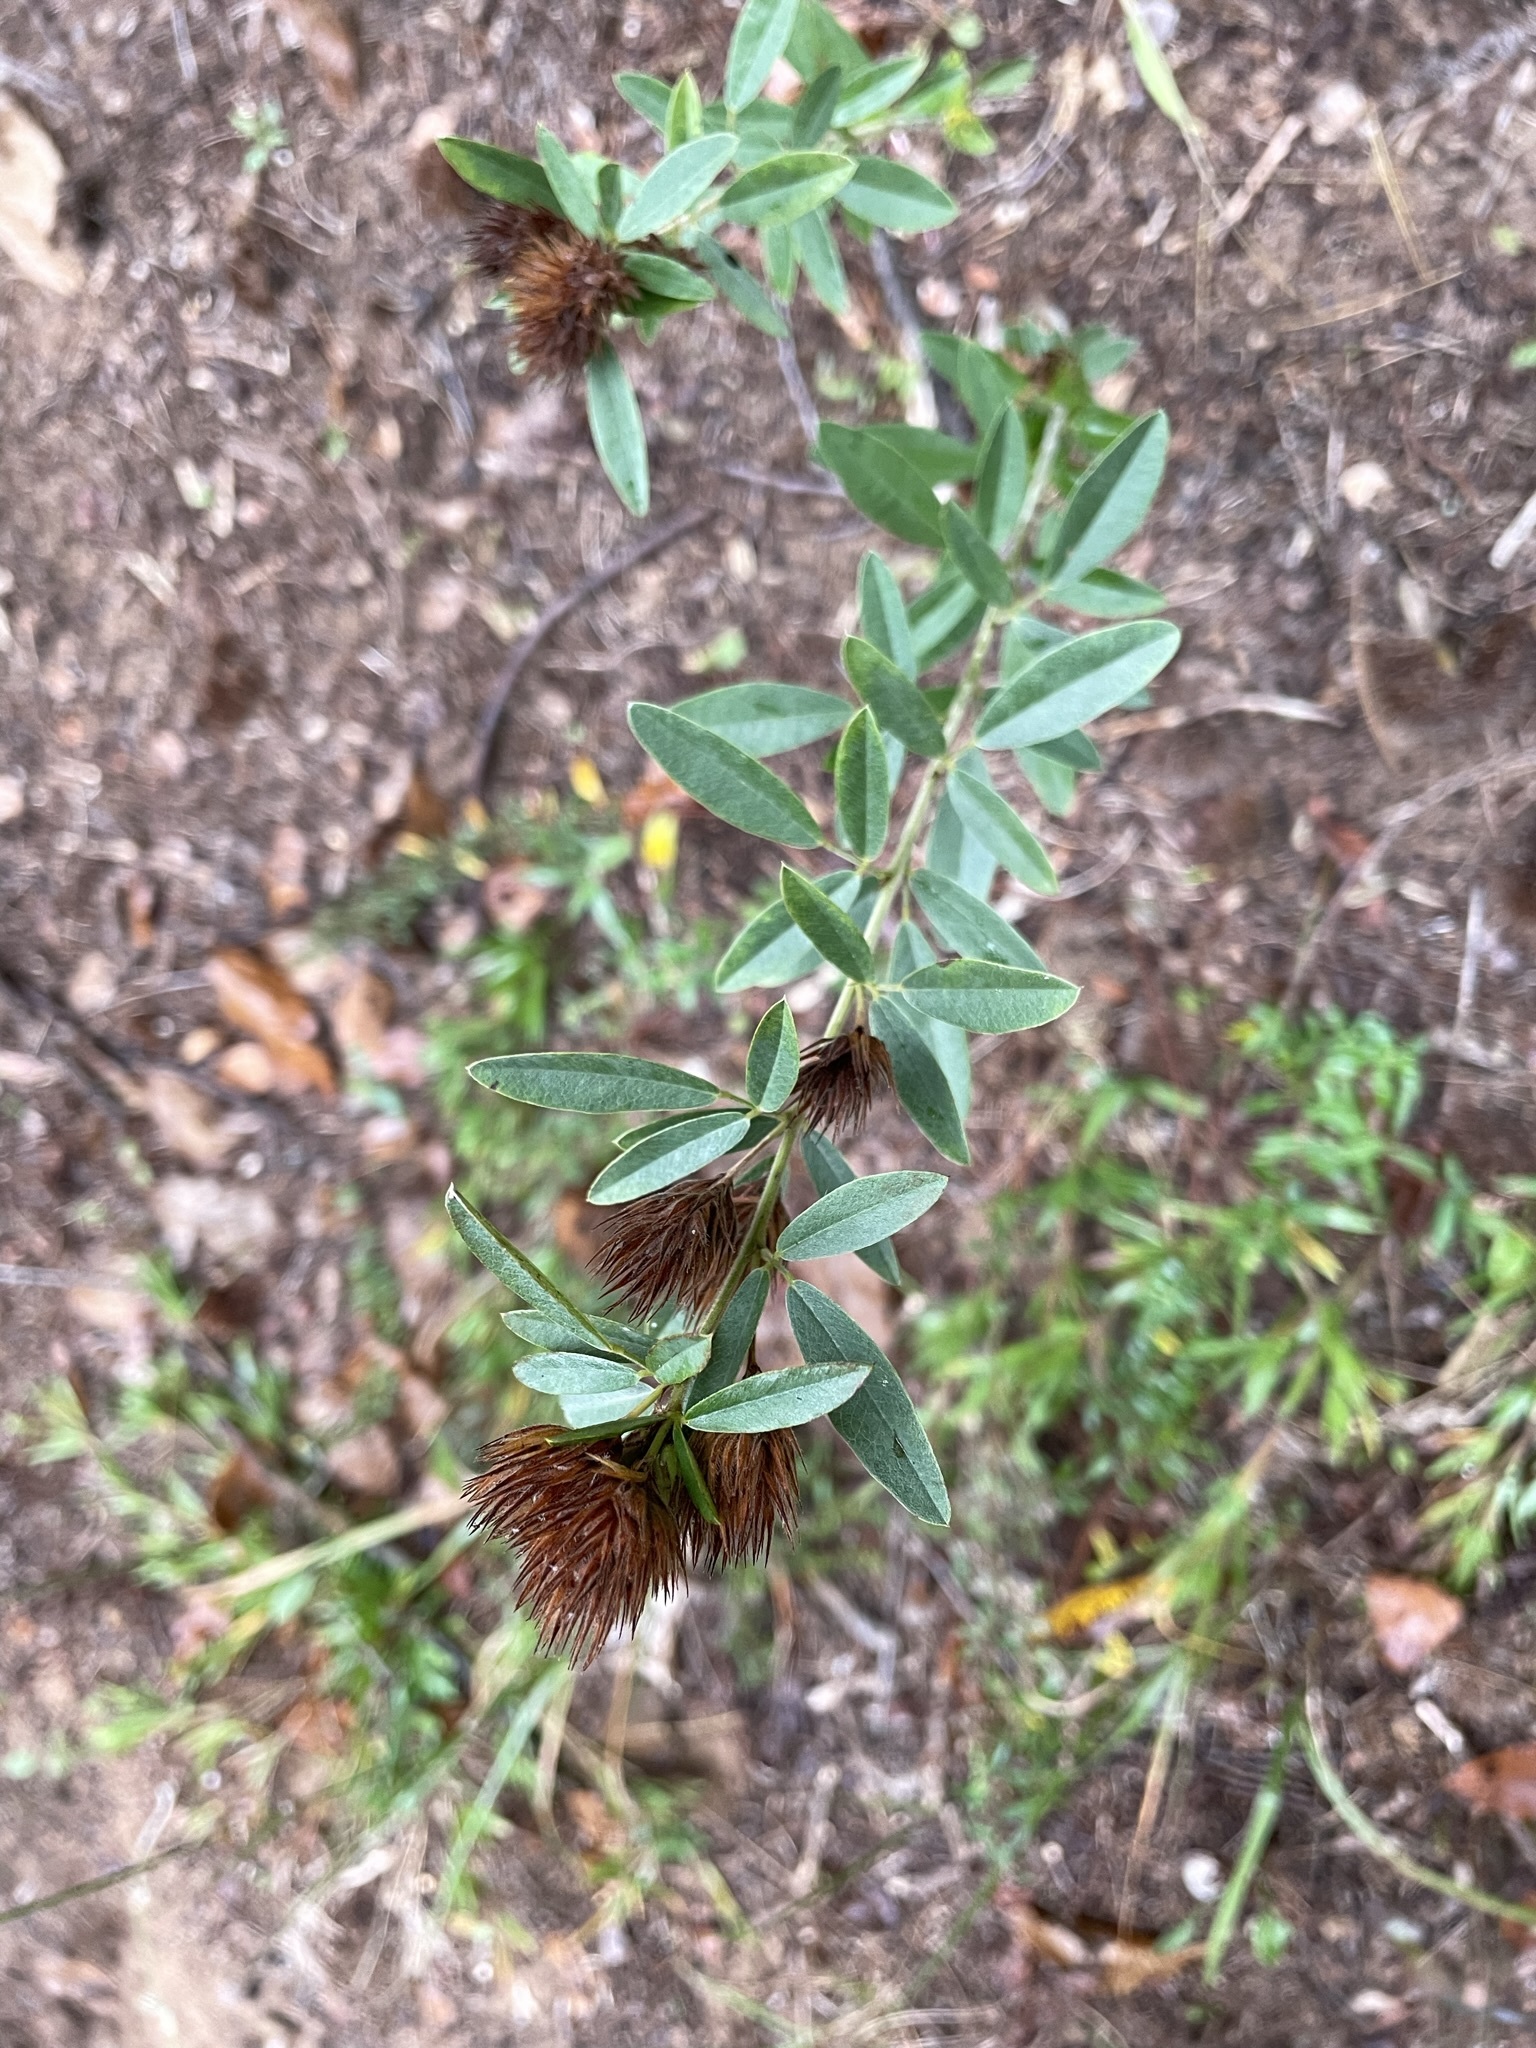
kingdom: Plantae
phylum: Tracheophyta
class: Magnoliopsida
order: Fabales
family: Fabaceae
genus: Lespedeza
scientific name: Lespedeza capitata
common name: Dusty clover
